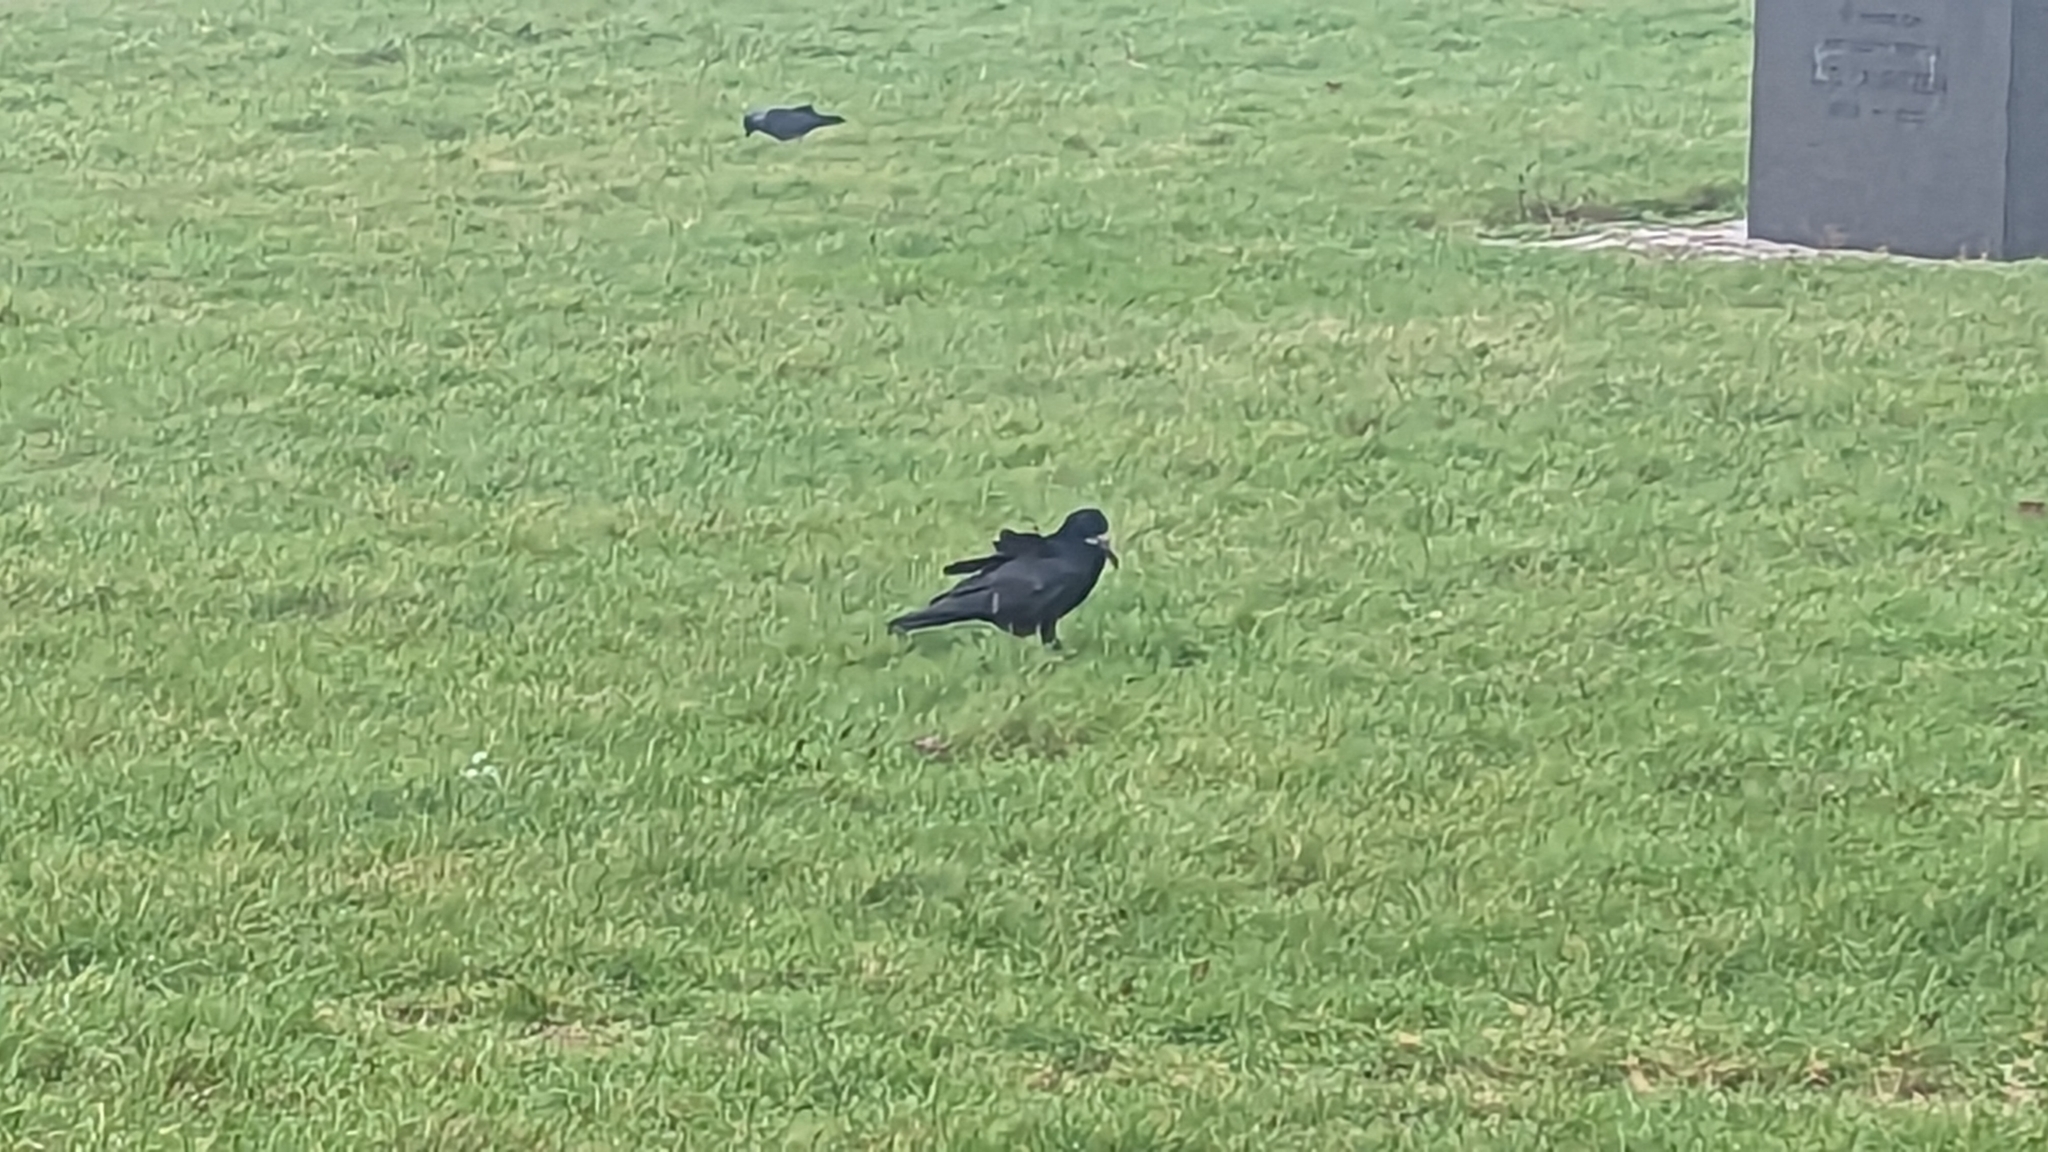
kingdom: Animalia
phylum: Chordata
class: Aves
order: Passeriformes
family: Corvidae
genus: Corvus
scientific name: Corvus frugilegus
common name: Rook
